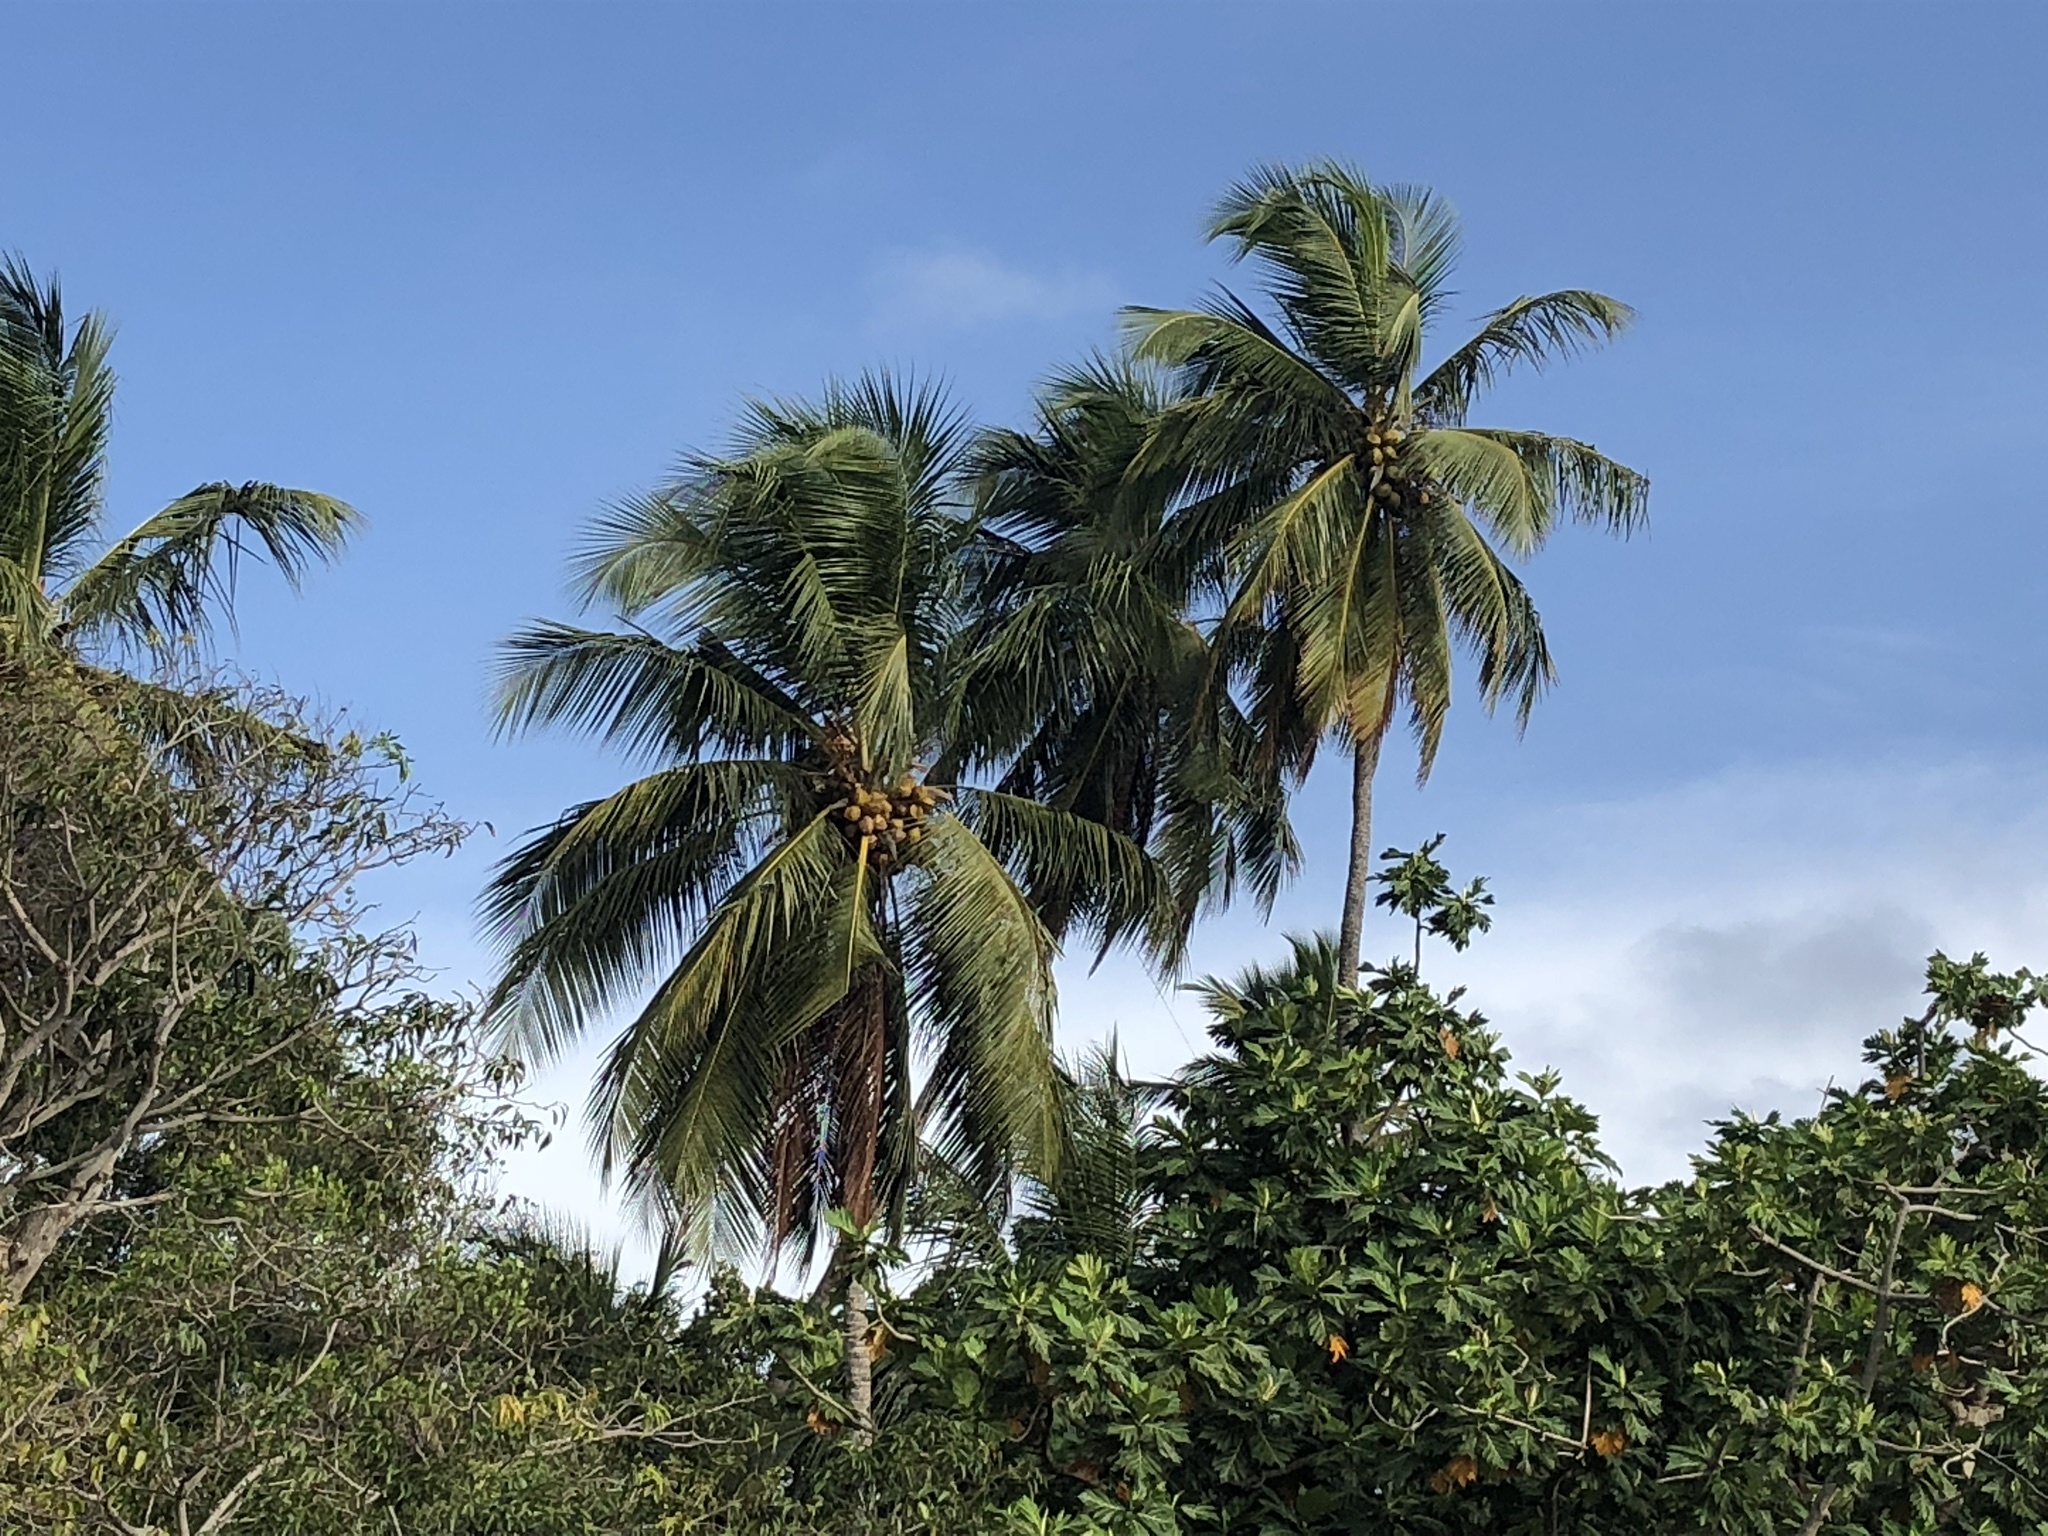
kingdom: Plantae
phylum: Tracheophyta
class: Liliopsida
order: Arecales
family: Arecaceae
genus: Cocos
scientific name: Cocos nucifera
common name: Coconut palm
